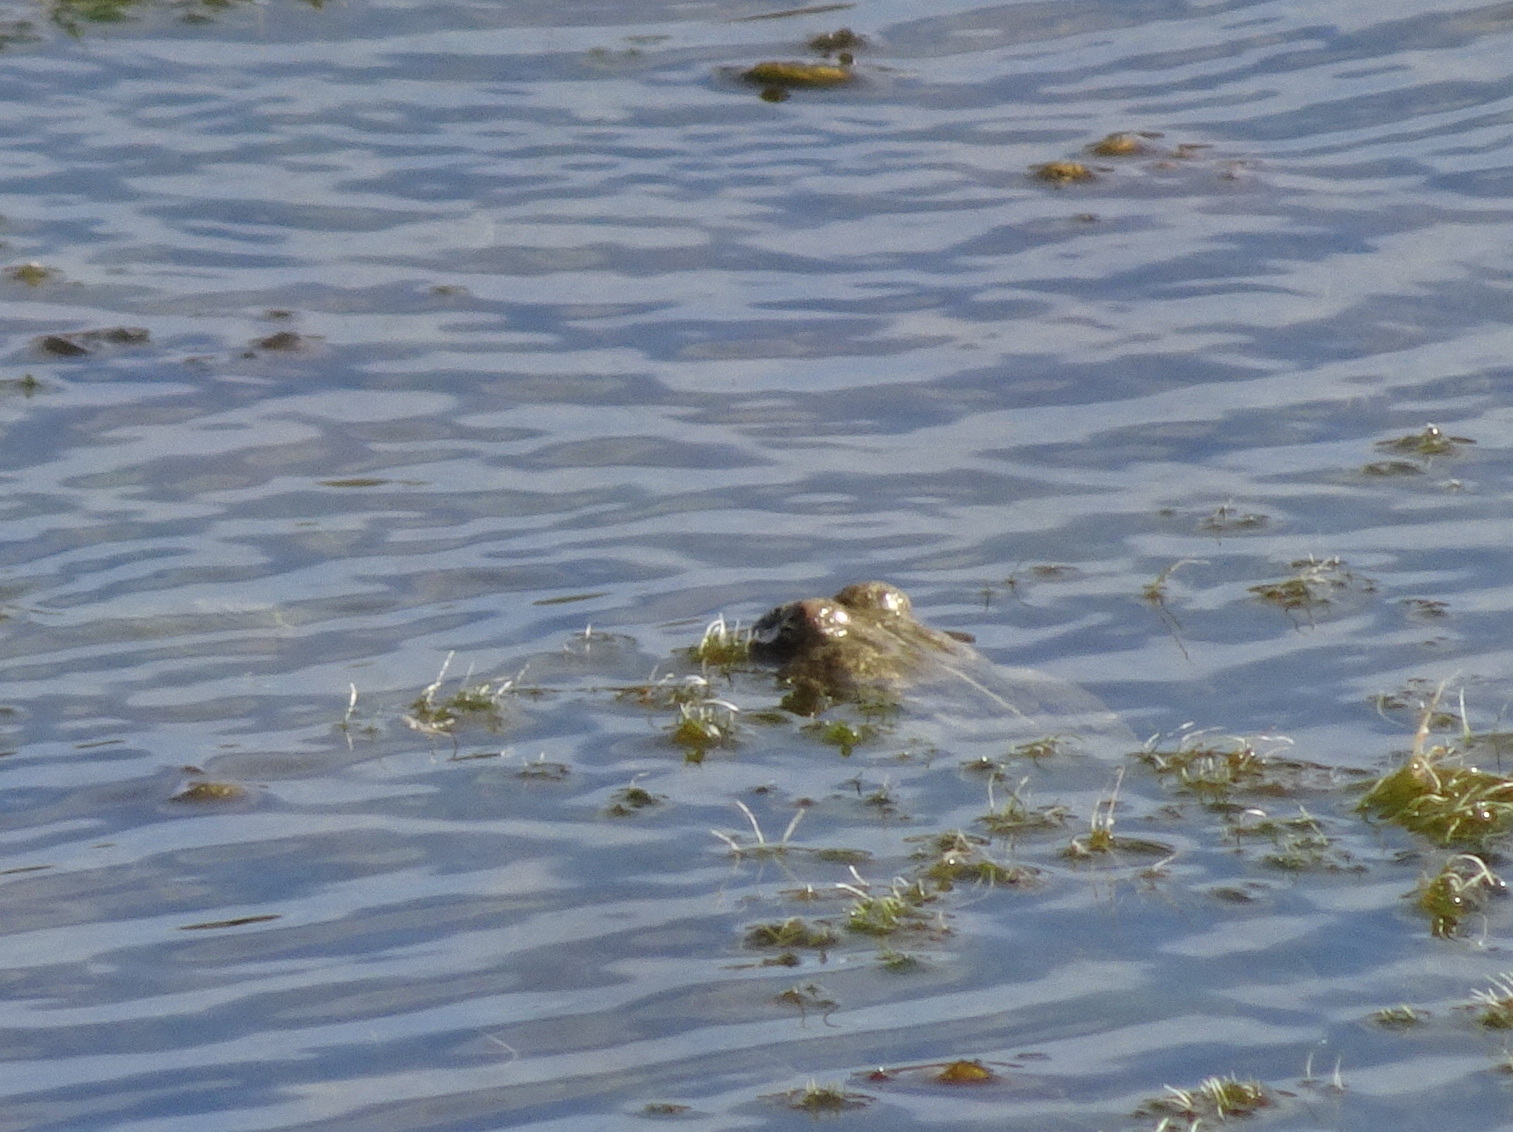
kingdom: Animalia
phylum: Chordata
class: Amphibia
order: Anura
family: Ranidae
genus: Pelophylax
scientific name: Pelophylax
